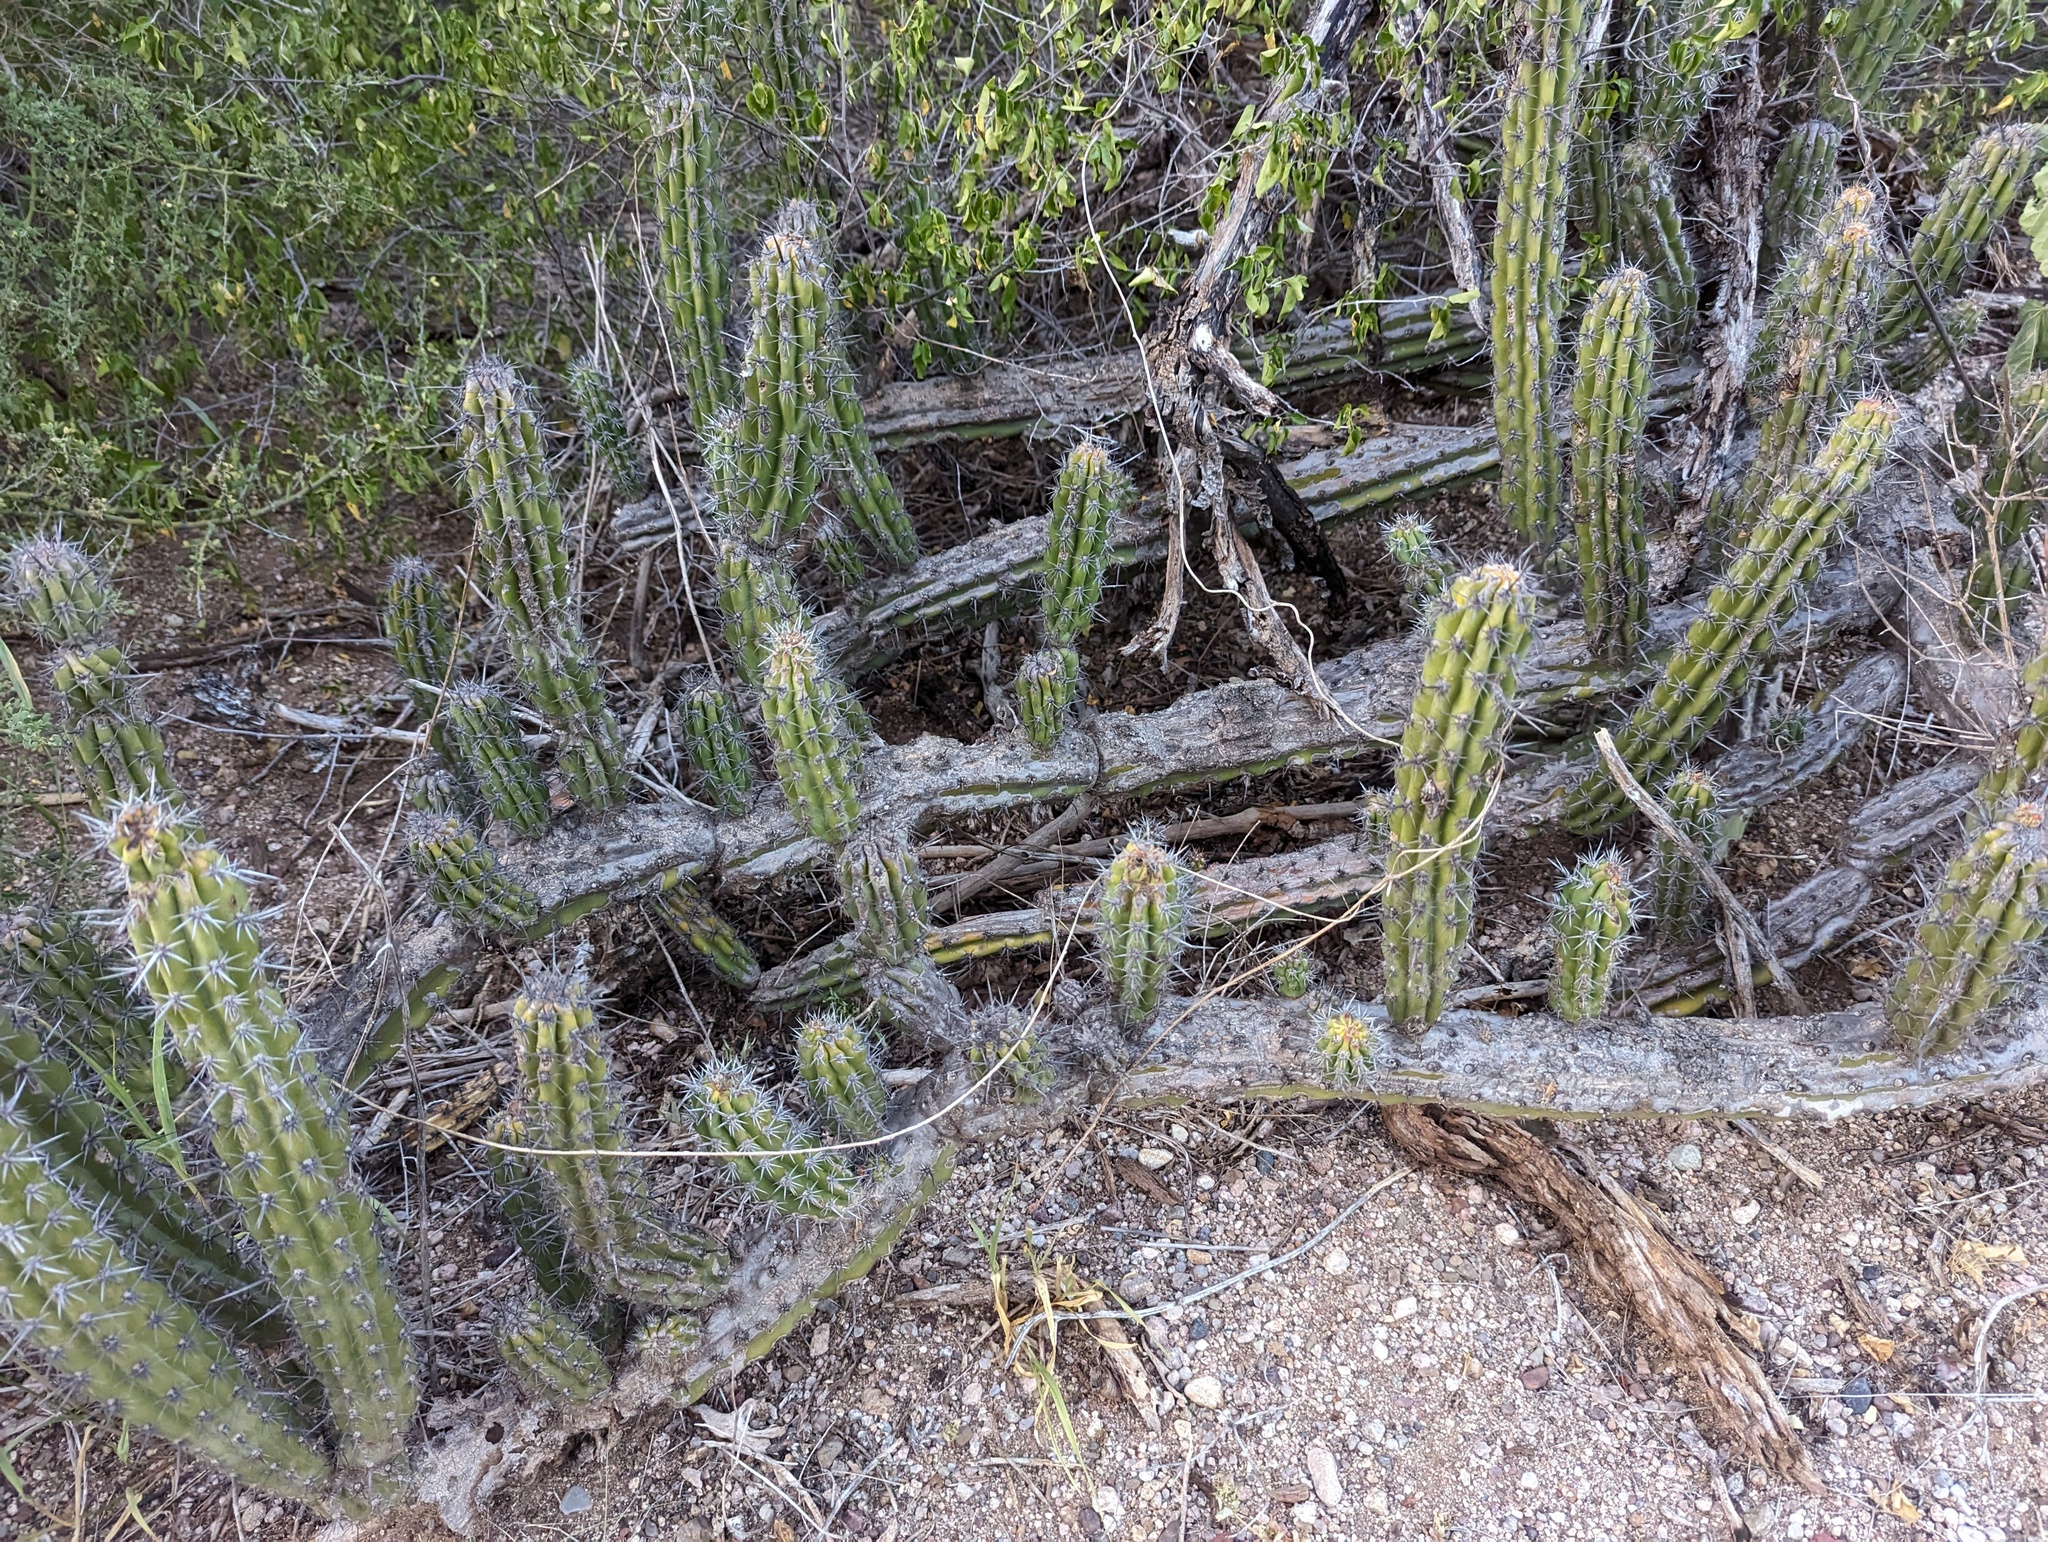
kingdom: Plantae
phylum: Tracheophyta
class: Magnoliopsida
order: Caryophyllales
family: Cactaceae
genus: Stenocereus
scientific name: Stenocereus gummosus
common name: Dagger cactus
